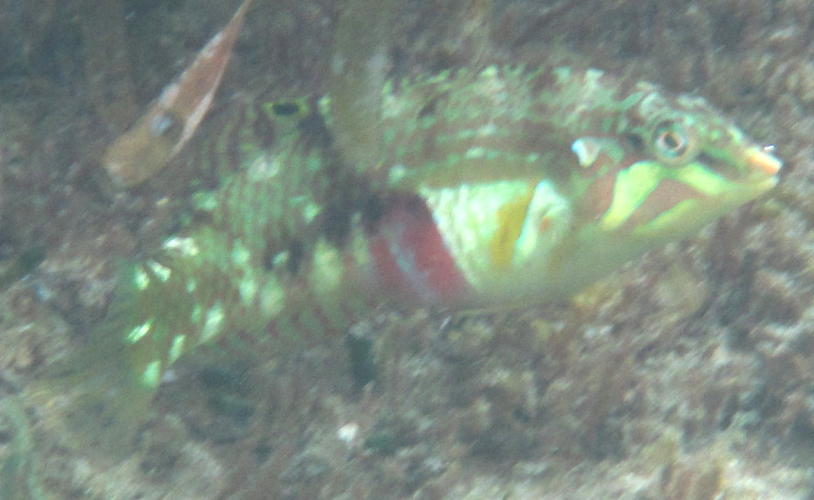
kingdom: Animalia
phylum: Chordata
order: Perciformes
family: Labridae
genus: Halichoeres
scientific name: Halichoeres nebulosus
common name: Clouded wrasse
